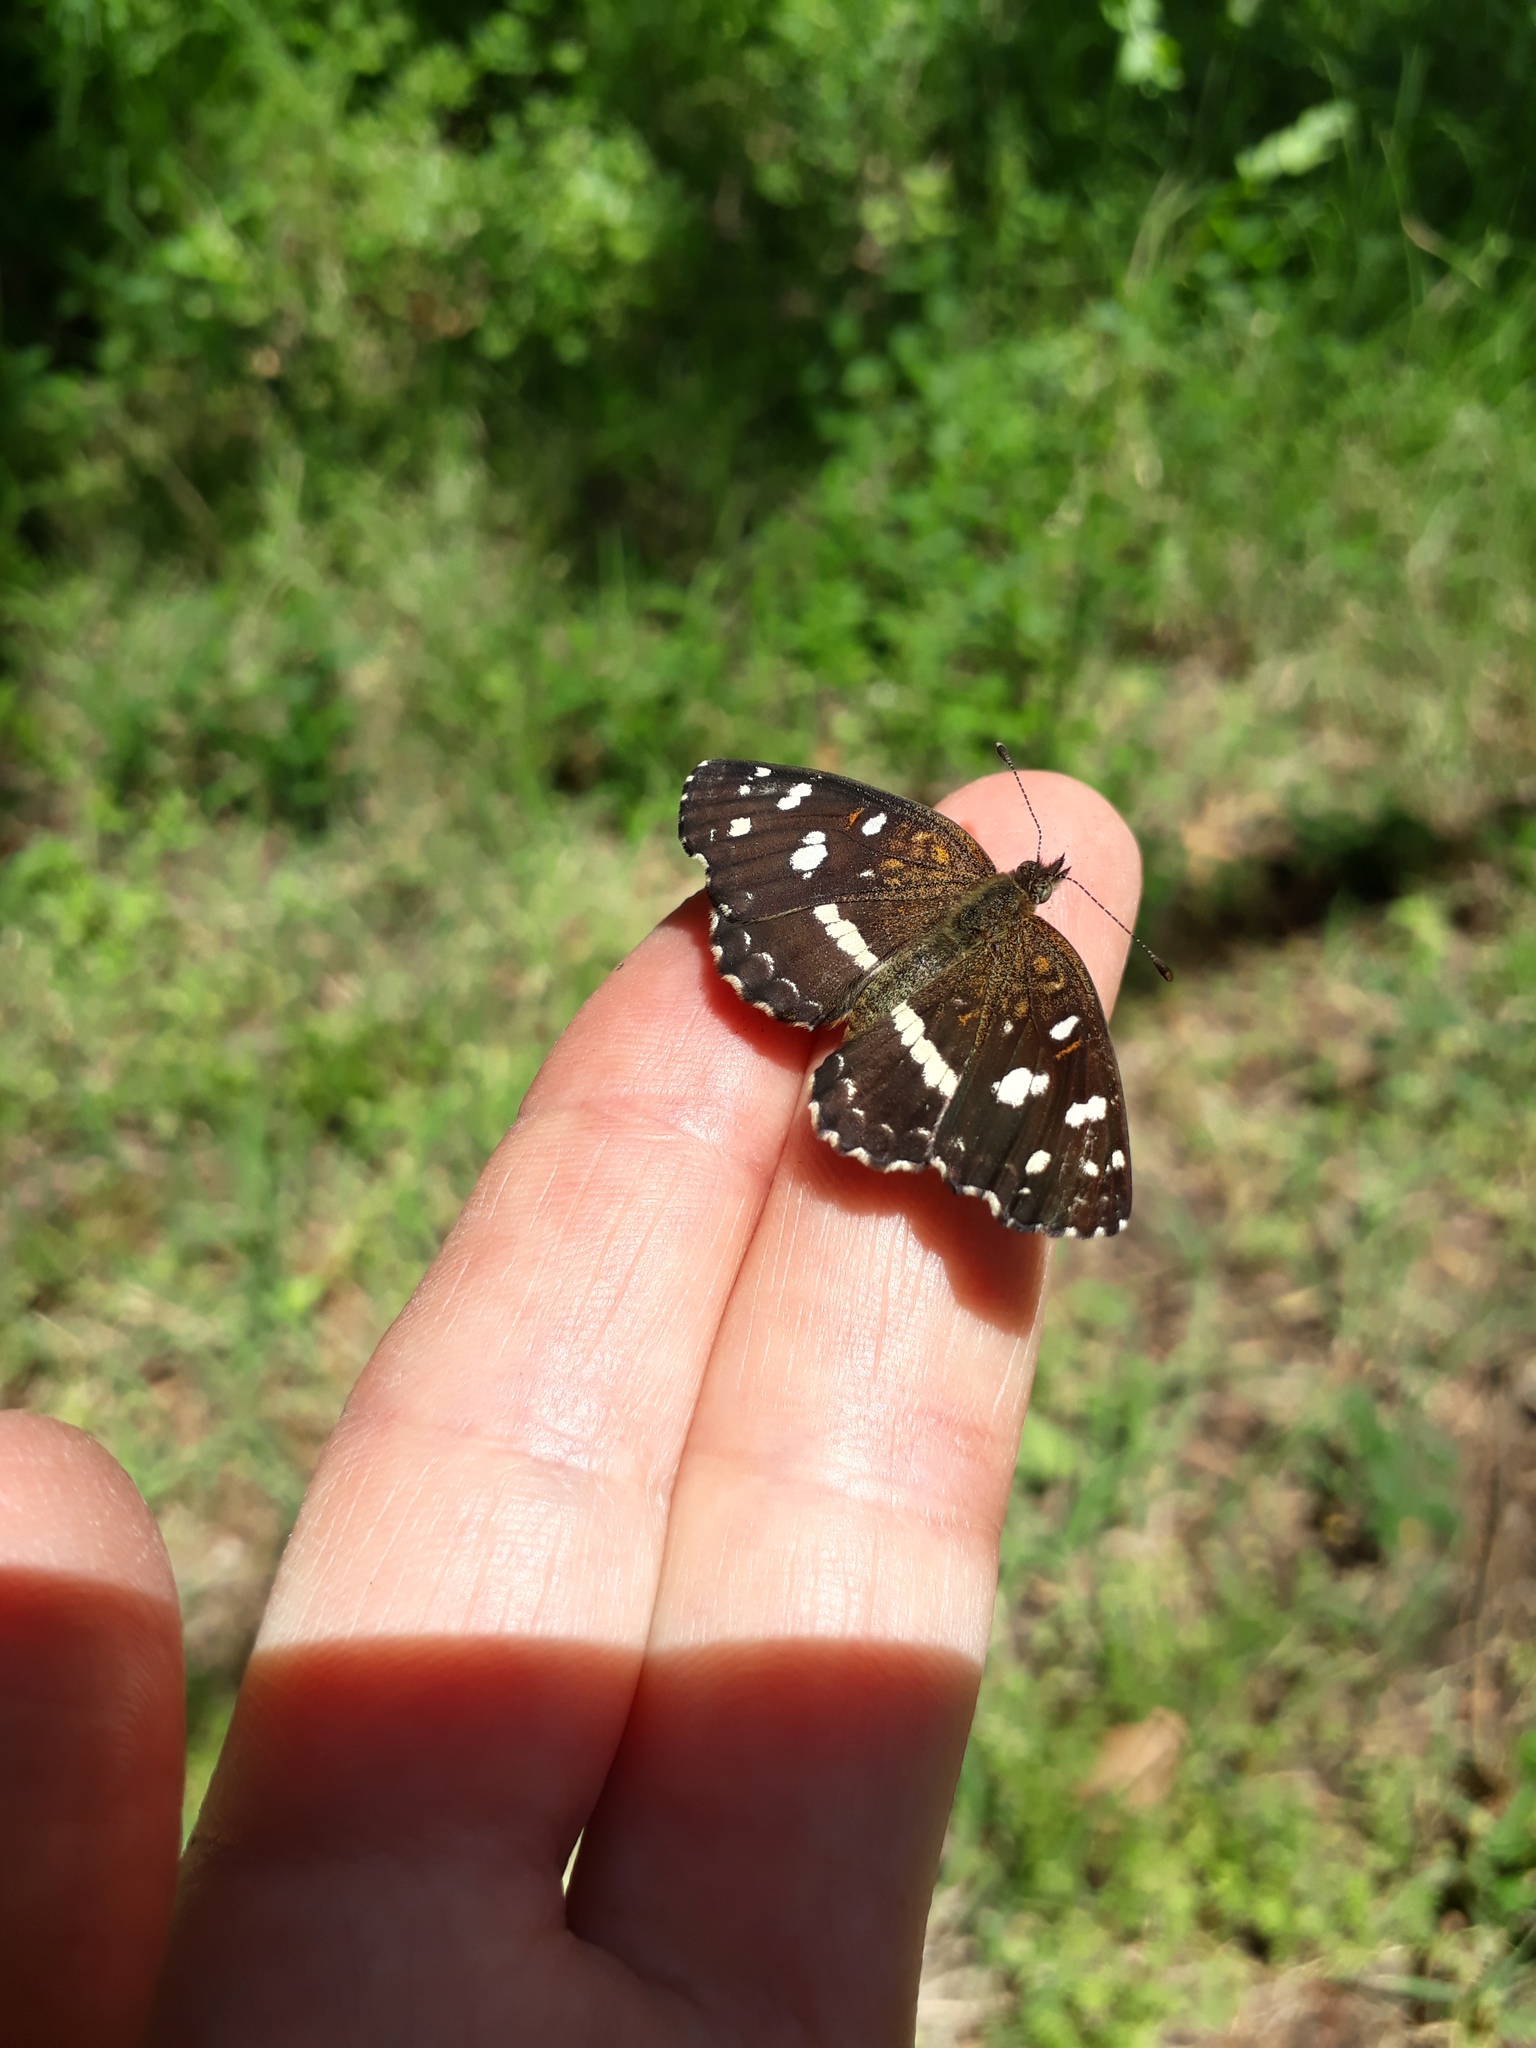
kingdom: Animalia
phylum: Arthropoda
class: Insecta
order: Lepidoptera
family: Nymphalidae
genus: Ortilia
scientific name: Ortilia ithra
